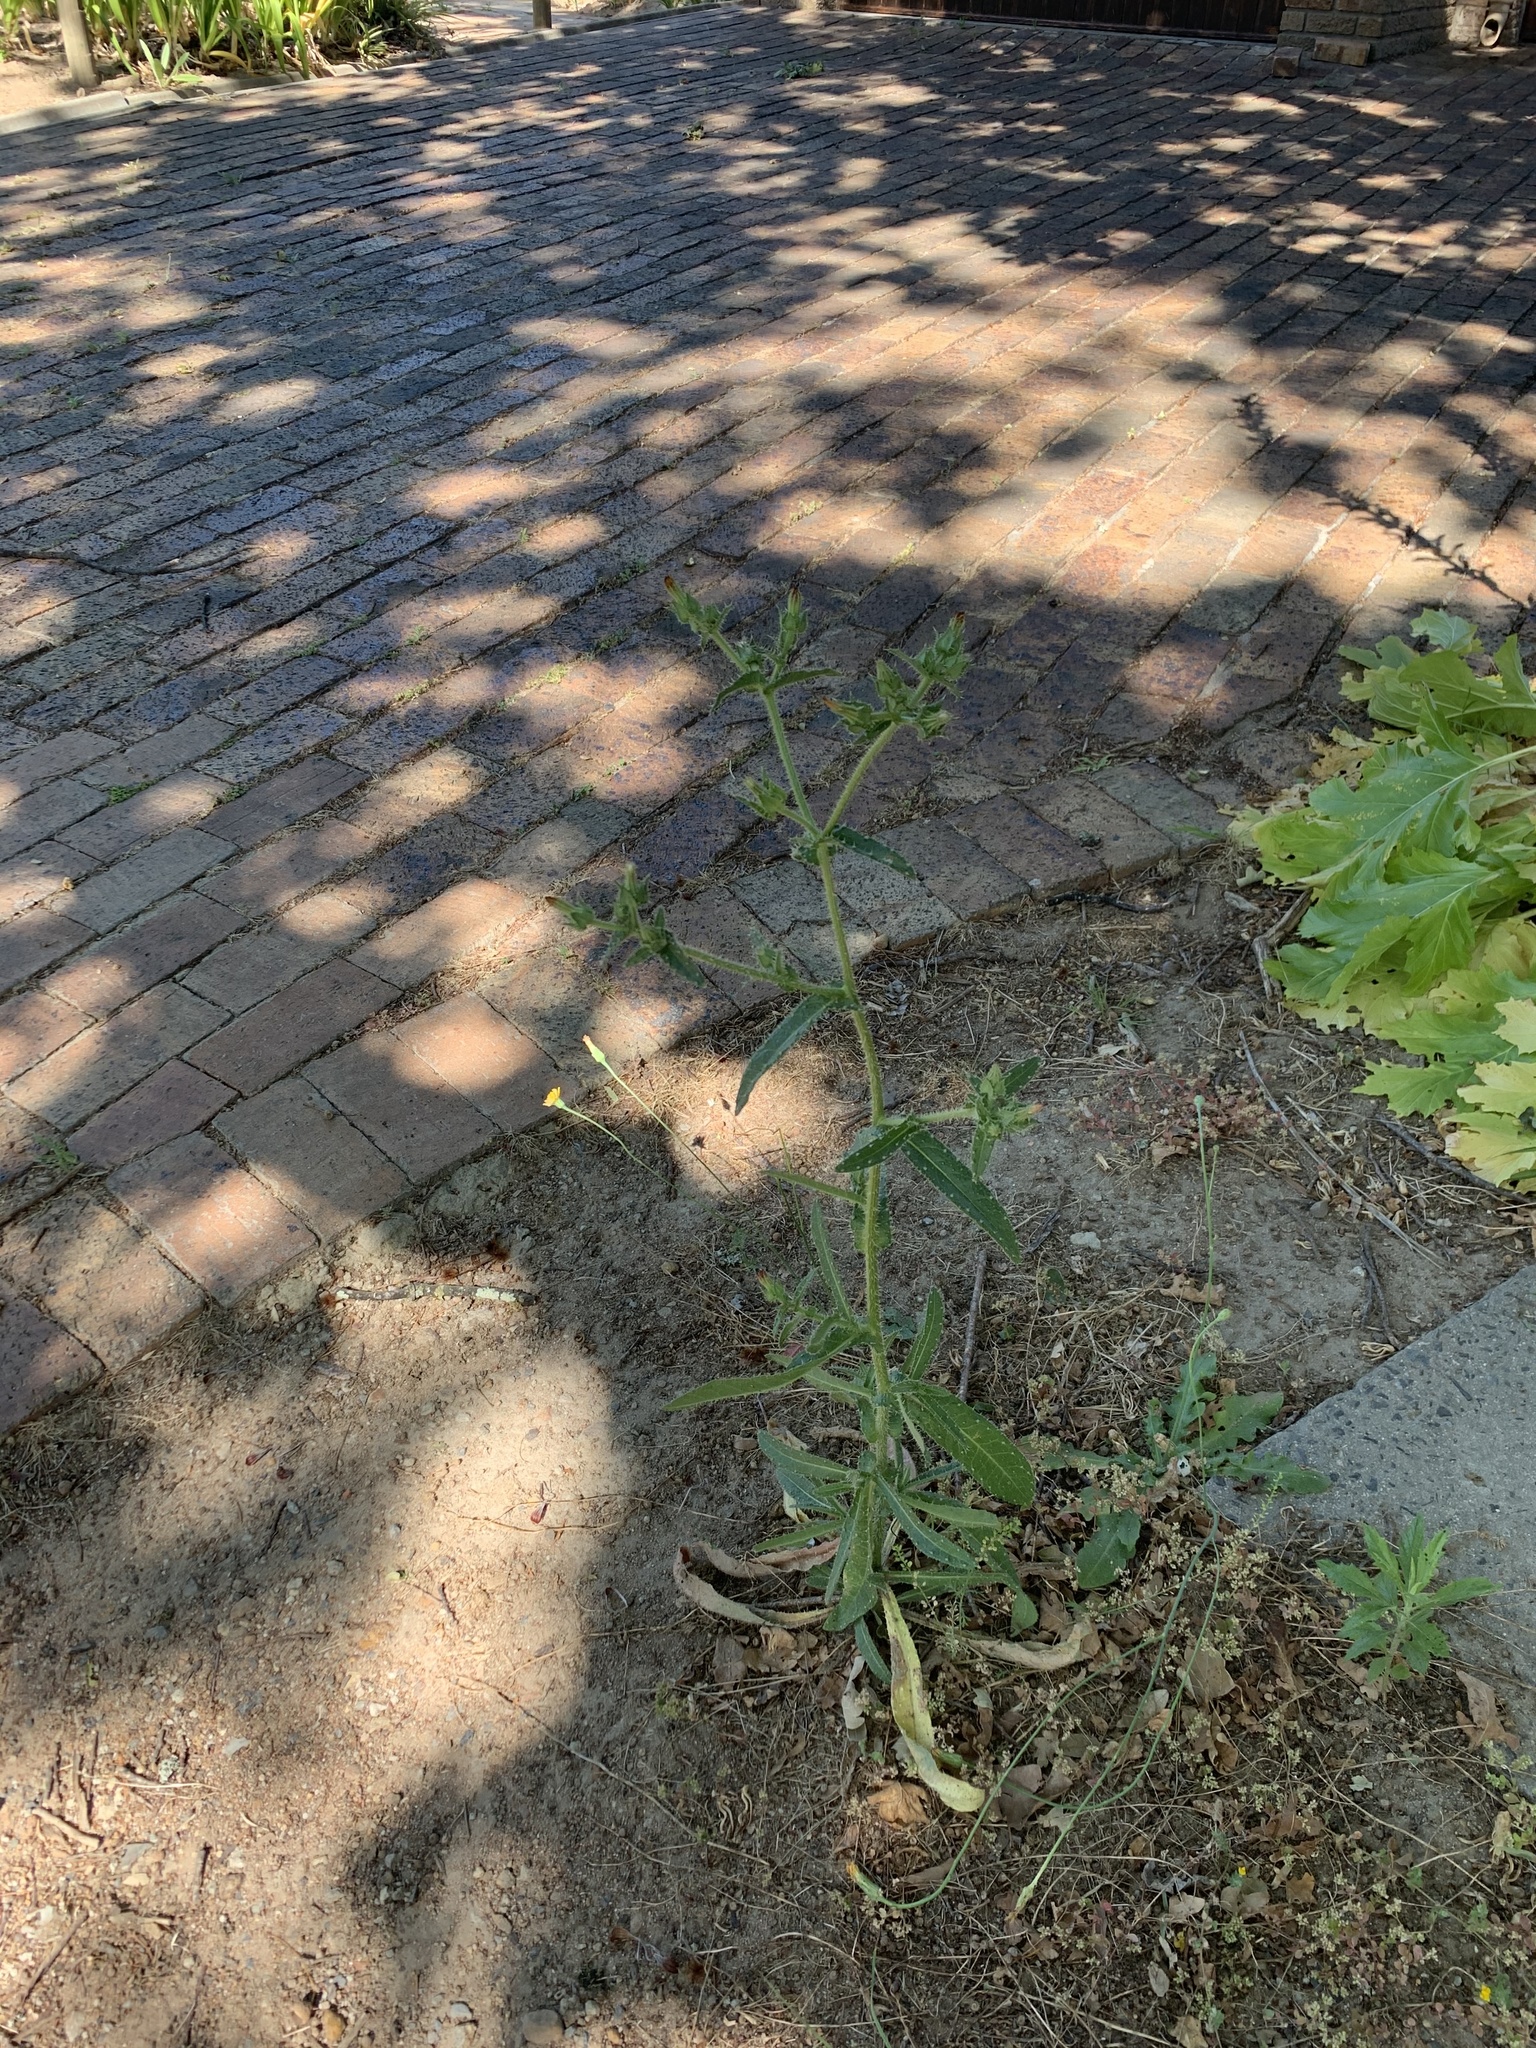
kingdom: Plantae
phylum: Tracheophyta
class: Magnoliopsida
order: Asterales
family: Asteraceae
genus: Helminthotheca
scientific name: Helminthotheca echioides
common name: Ox-tongue
